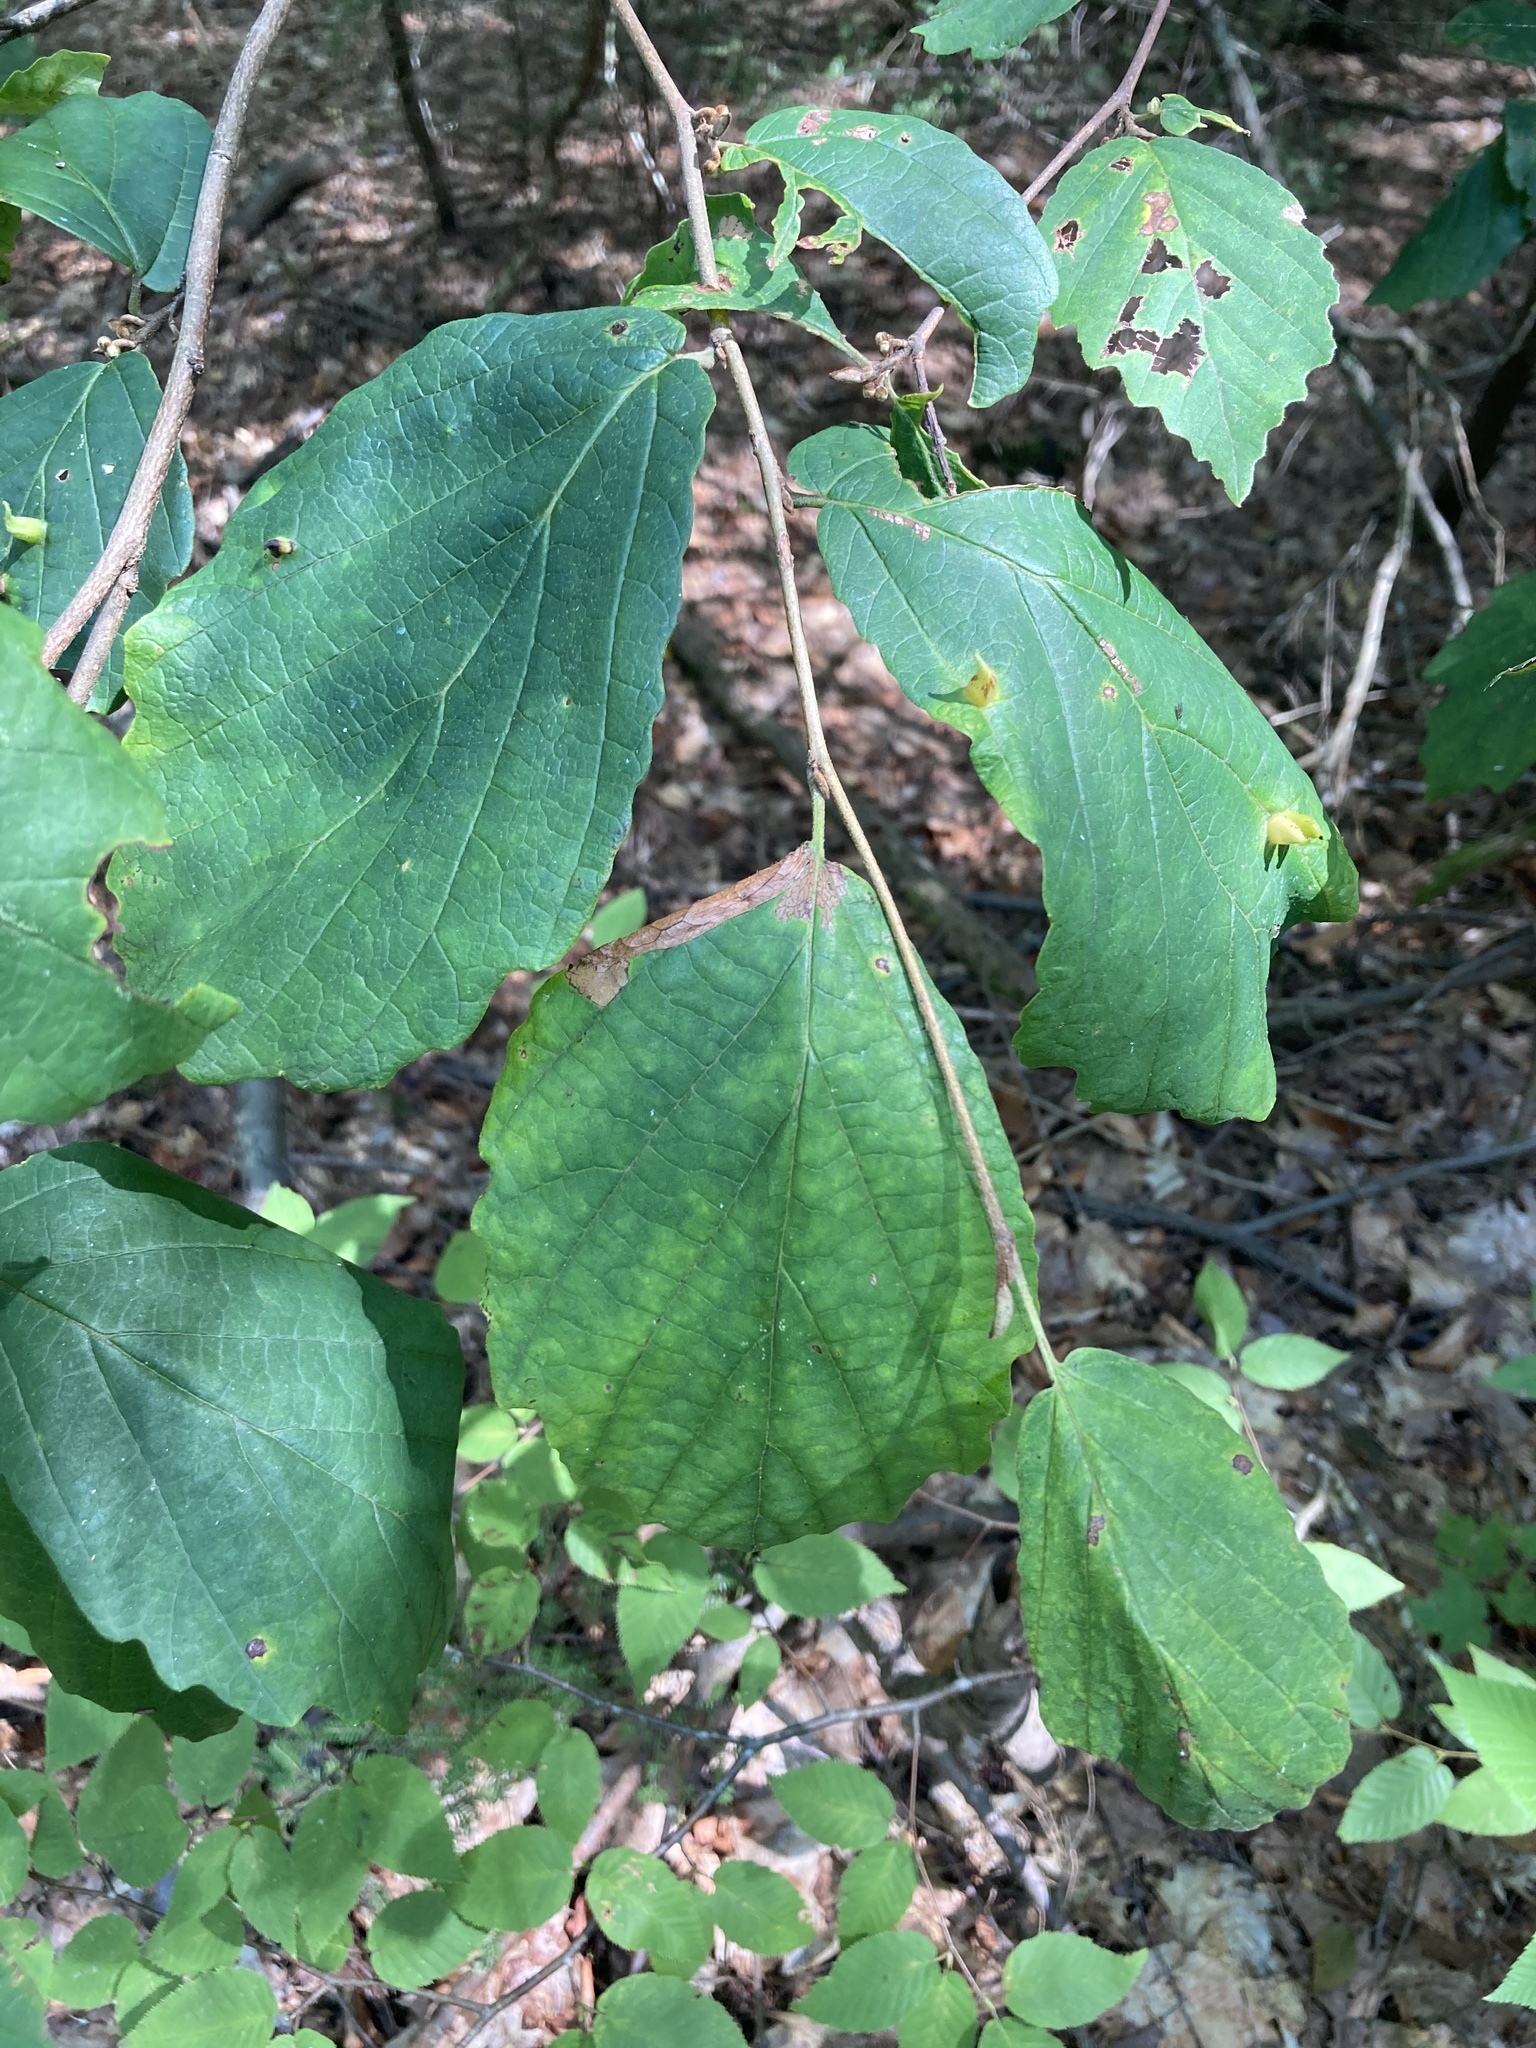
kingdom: Plantae
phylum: Tracheophyta
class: Magnoliopsida
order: Saxifragales
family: Hamamelidaceae
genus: Hamamelis
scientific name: Hamamelis virginiana
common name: Witch-hazel
